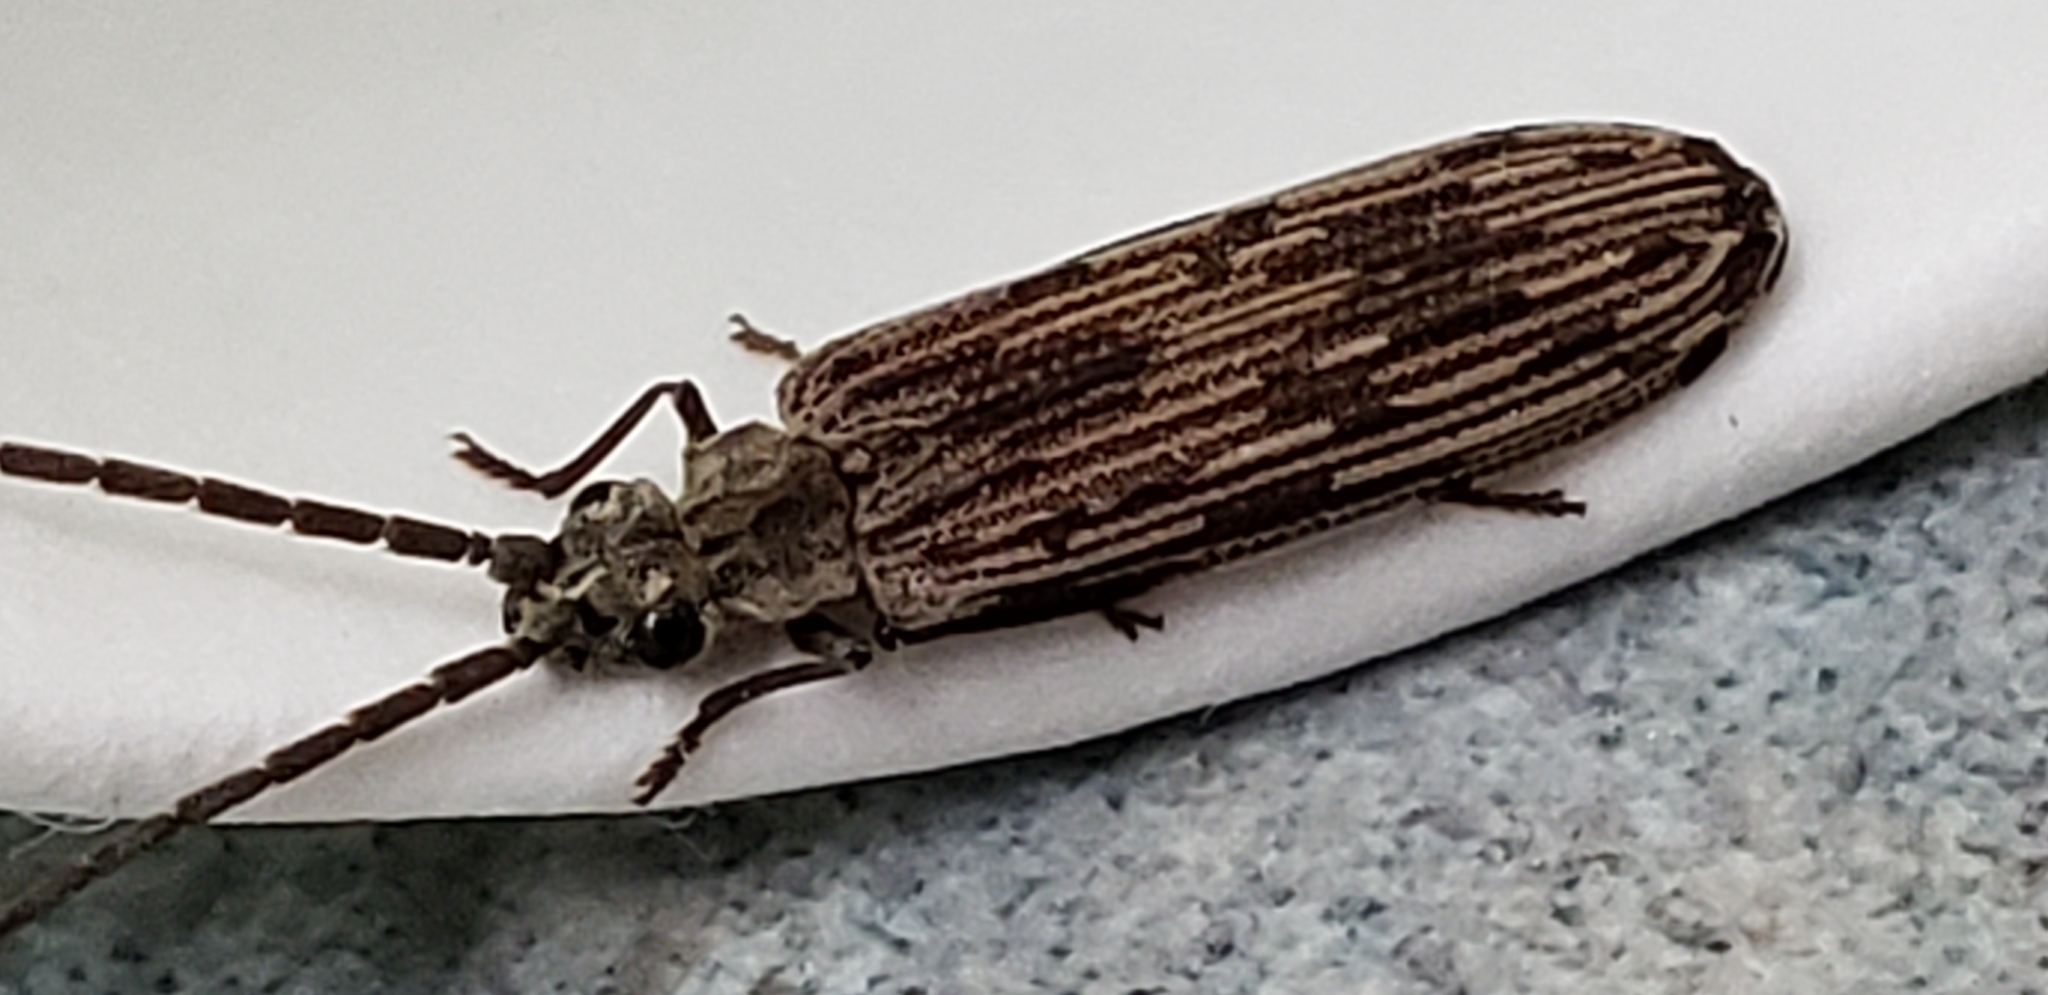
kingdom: Animalia
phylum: Arthropoda
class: Insecta
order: Coleoptera
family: Cupedidae
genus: Tenomerga
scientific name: Tenomerga cinerea
